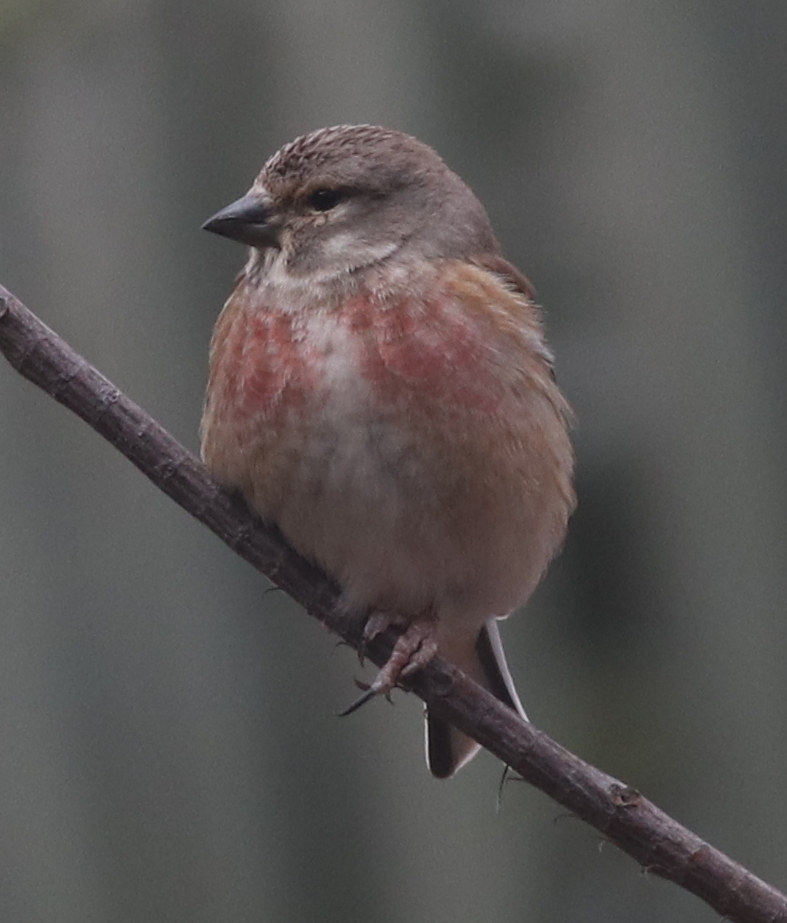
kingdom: Animalia
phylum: Chordata
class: Aves
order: Passeriformes
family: Fringillidae
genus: Linaria
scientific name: Linaria cannabina
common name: Common linnet
